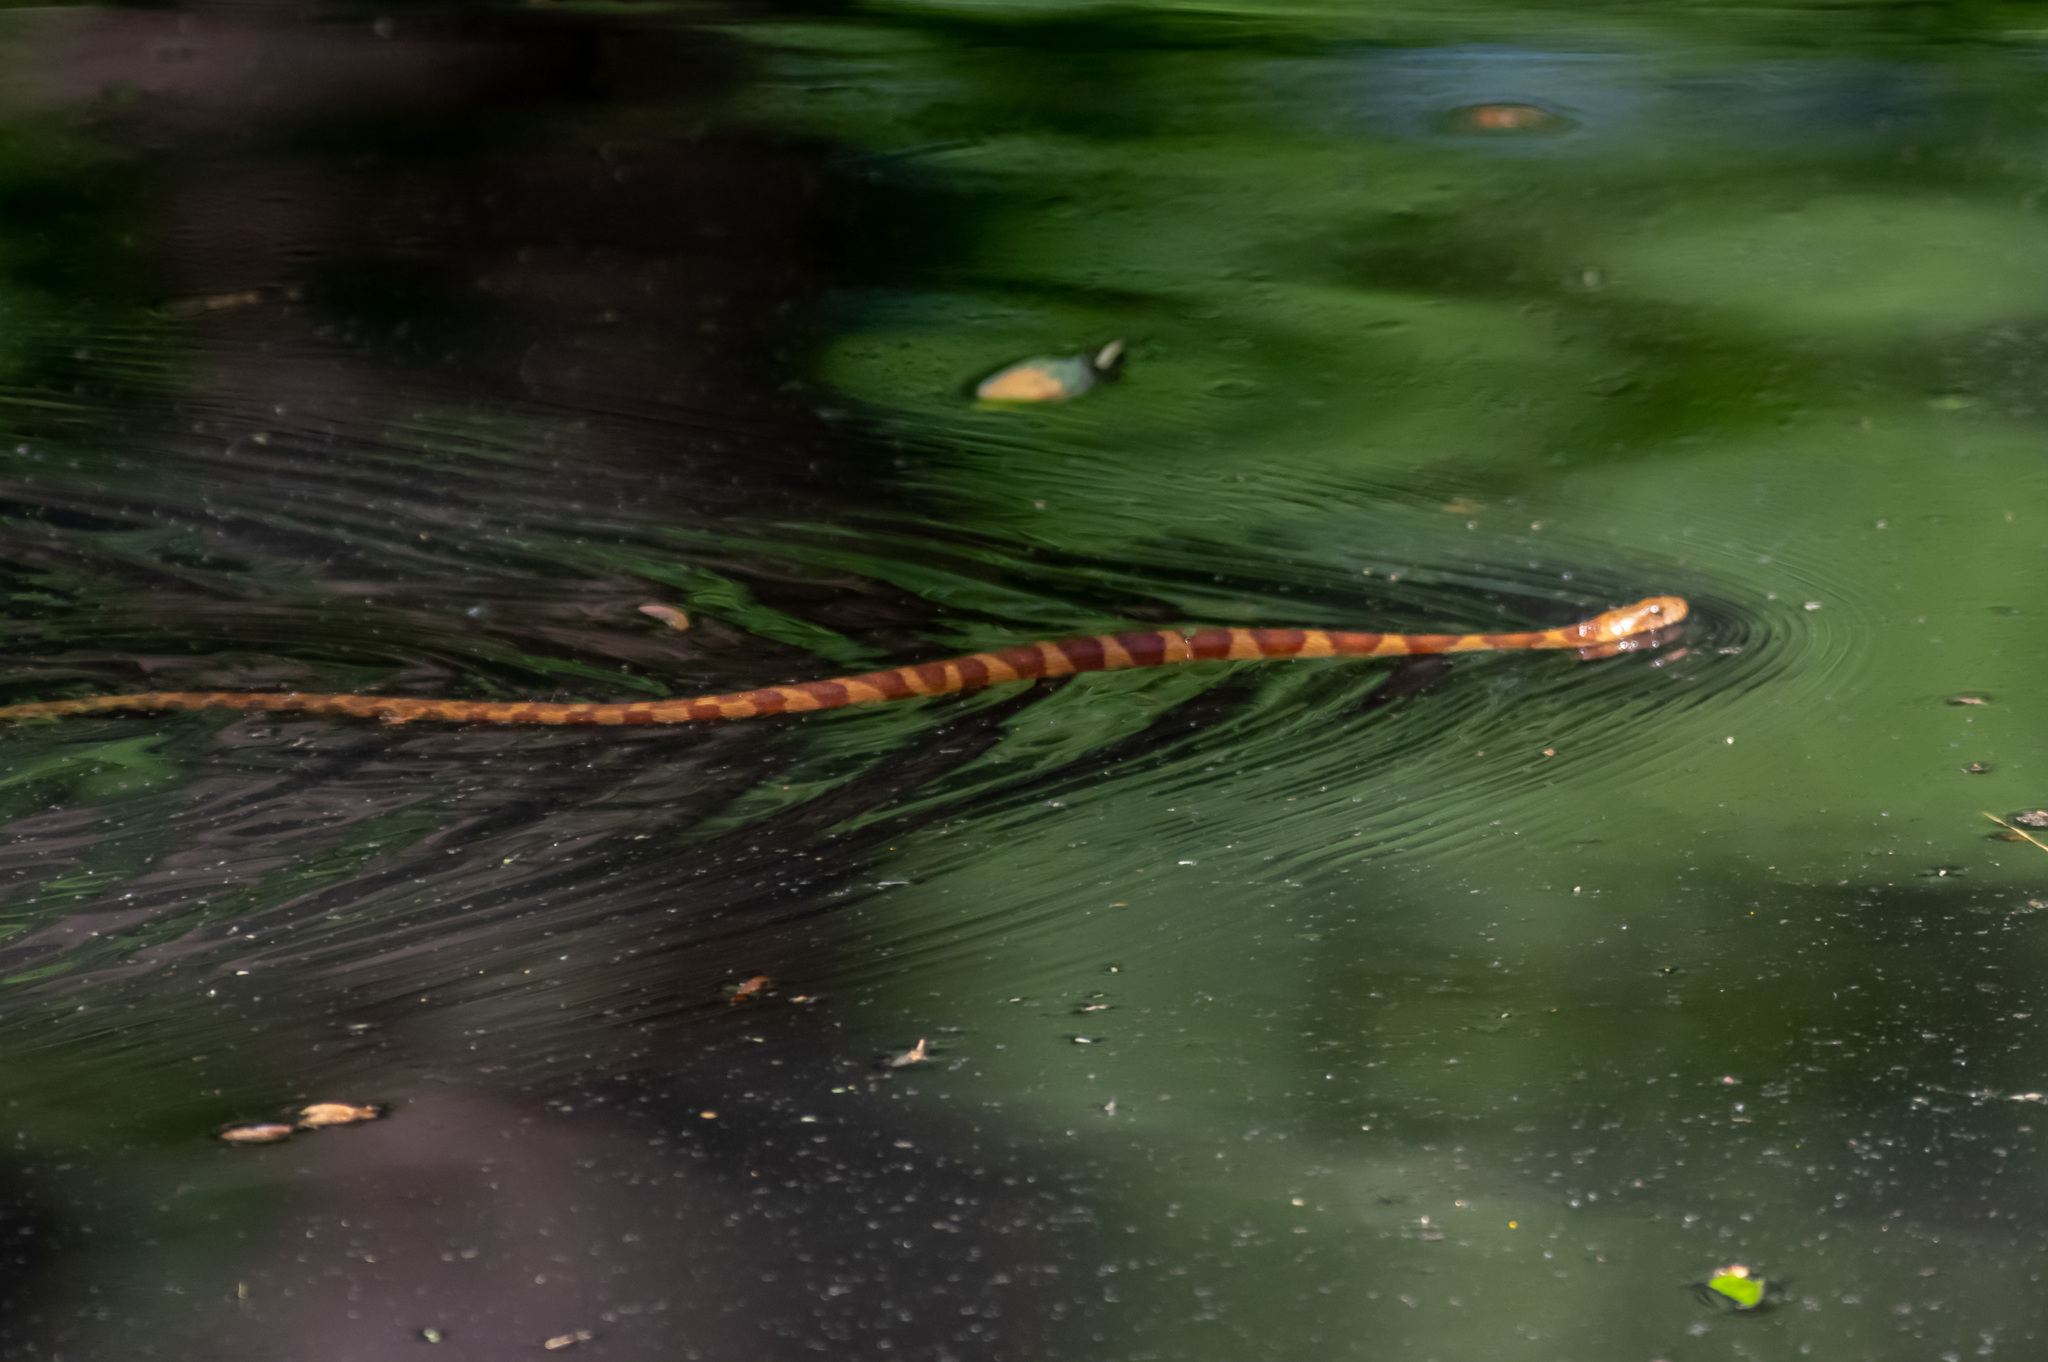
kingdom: Animalia
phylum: Chordata
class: Squamata
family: Colubridae
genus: Nerodia
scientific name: Nerodia sipedon
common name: Northern water snake
